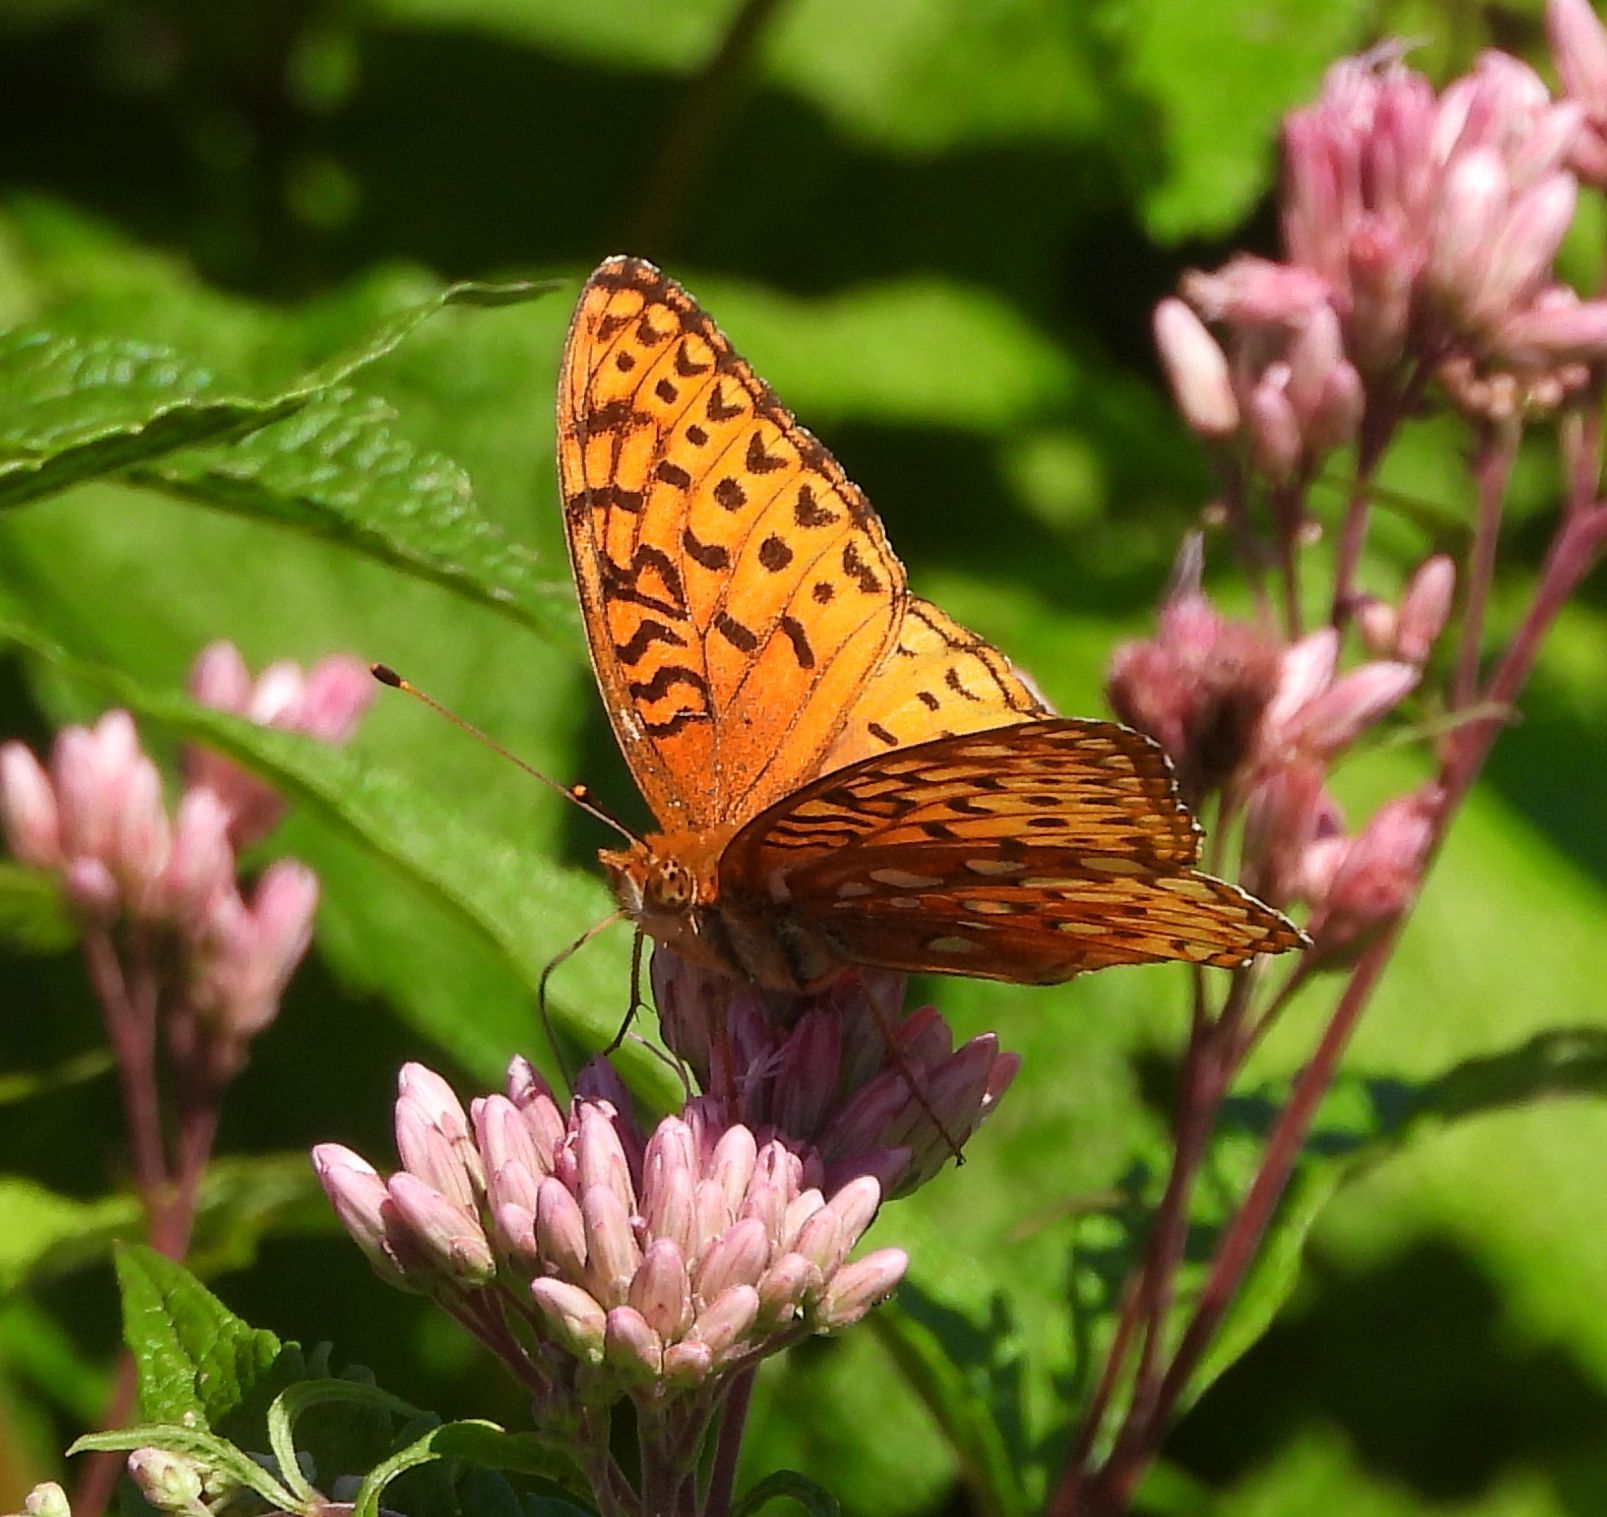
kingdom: Animalia
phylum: Arthropoda
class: Insecta
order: Lepidoptera
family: Nymphalidae
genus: Speyeria
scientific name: Speyeria aphrodite
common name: Aphrodite friitllary
